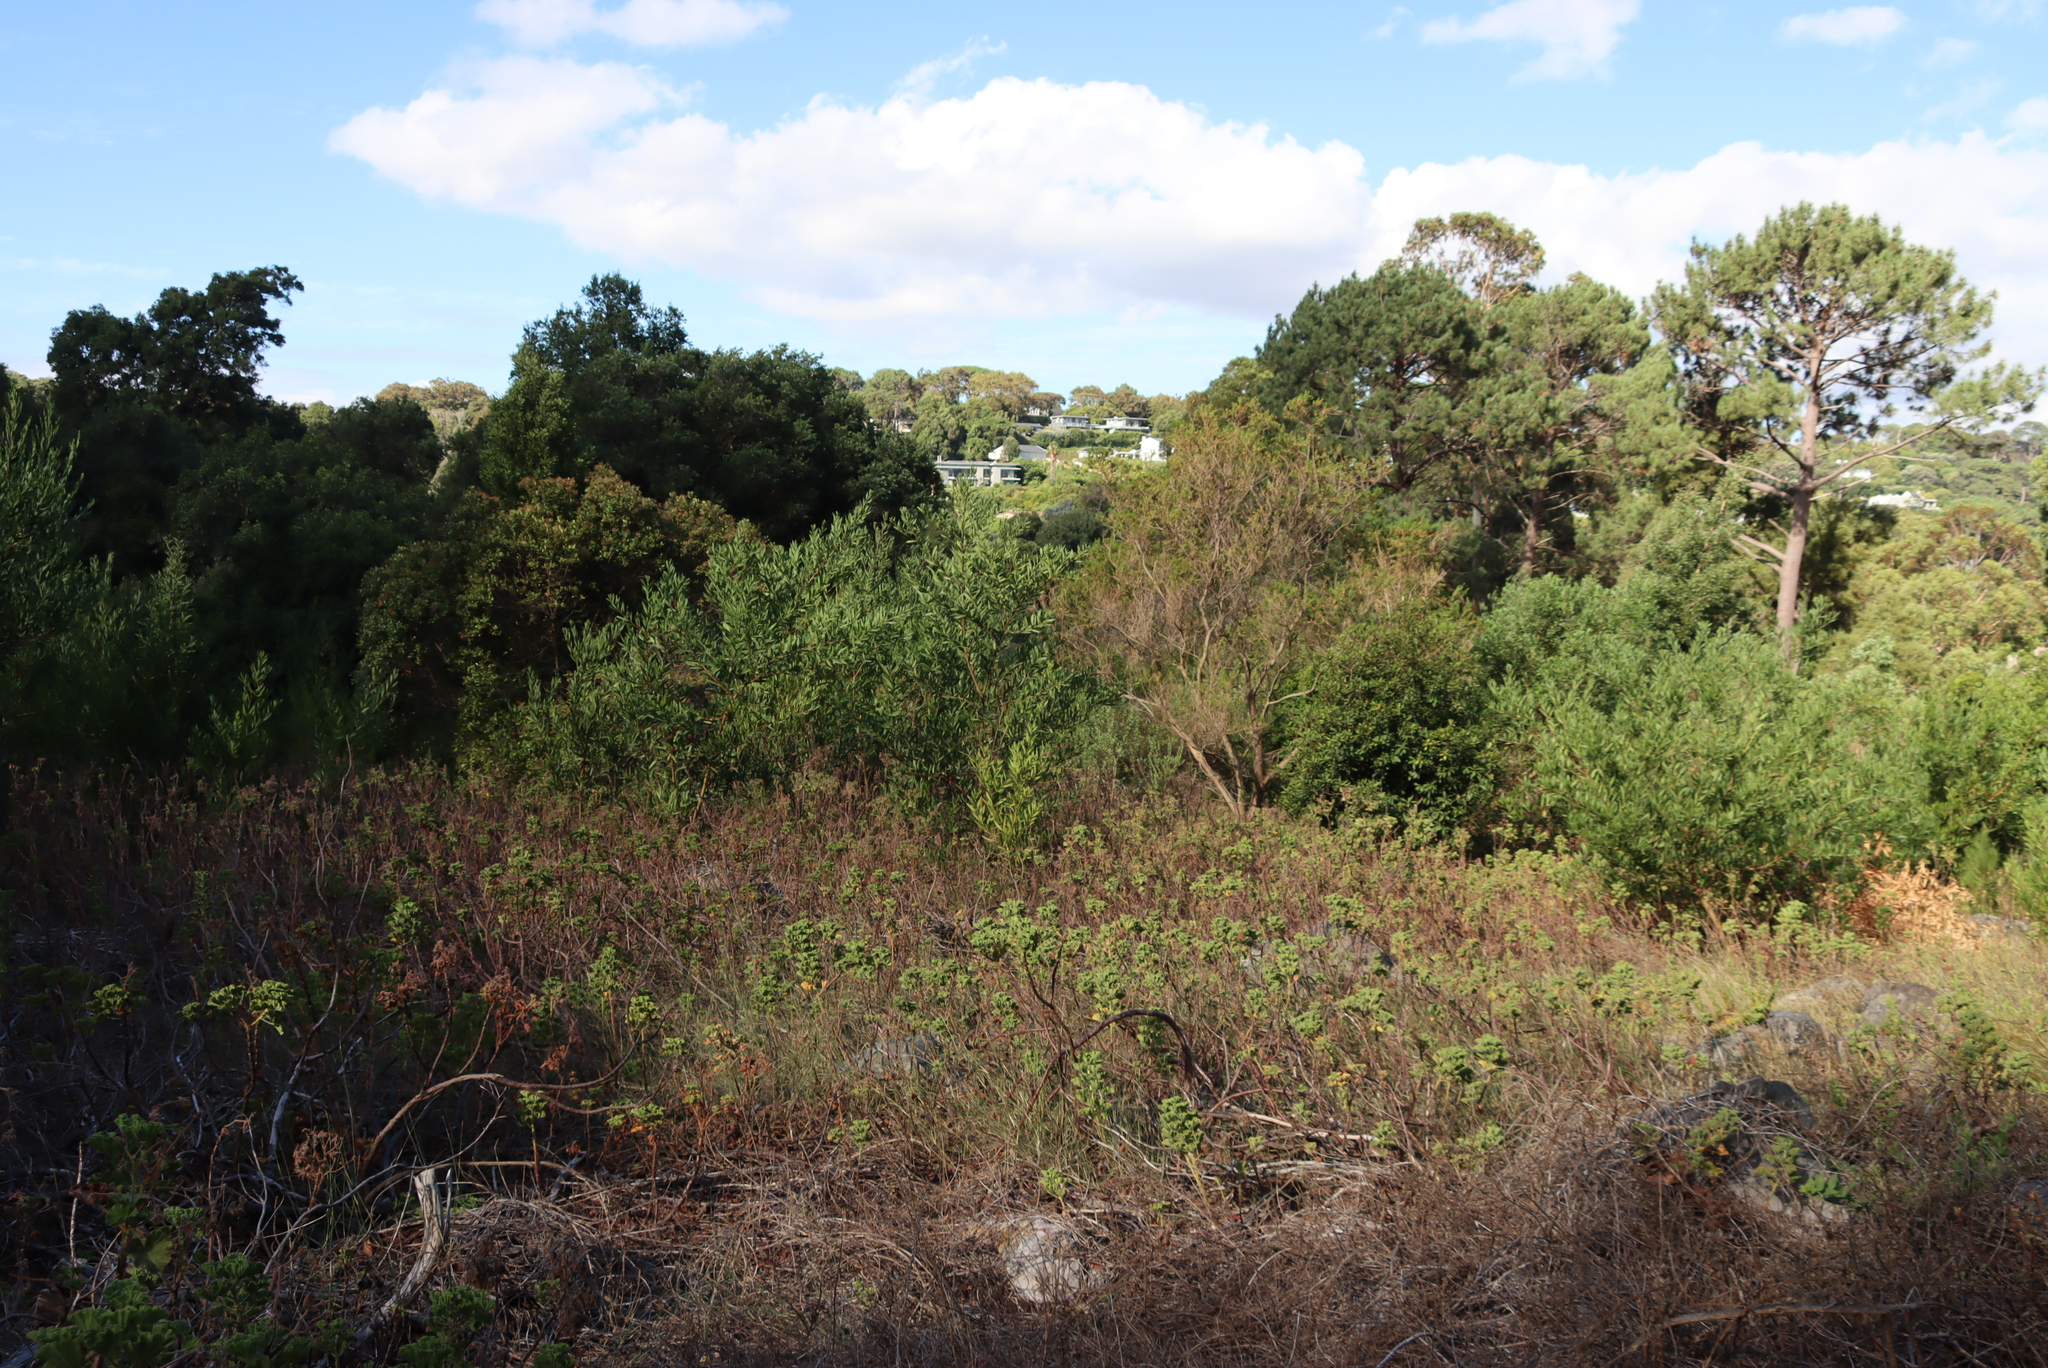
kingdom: Plantae
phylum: Tracheophyta
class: Magnoliopsida
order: Fabales
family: Fabaceae
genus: Acacia
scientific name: Acacia longifolia
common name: Sydney golden wattle
